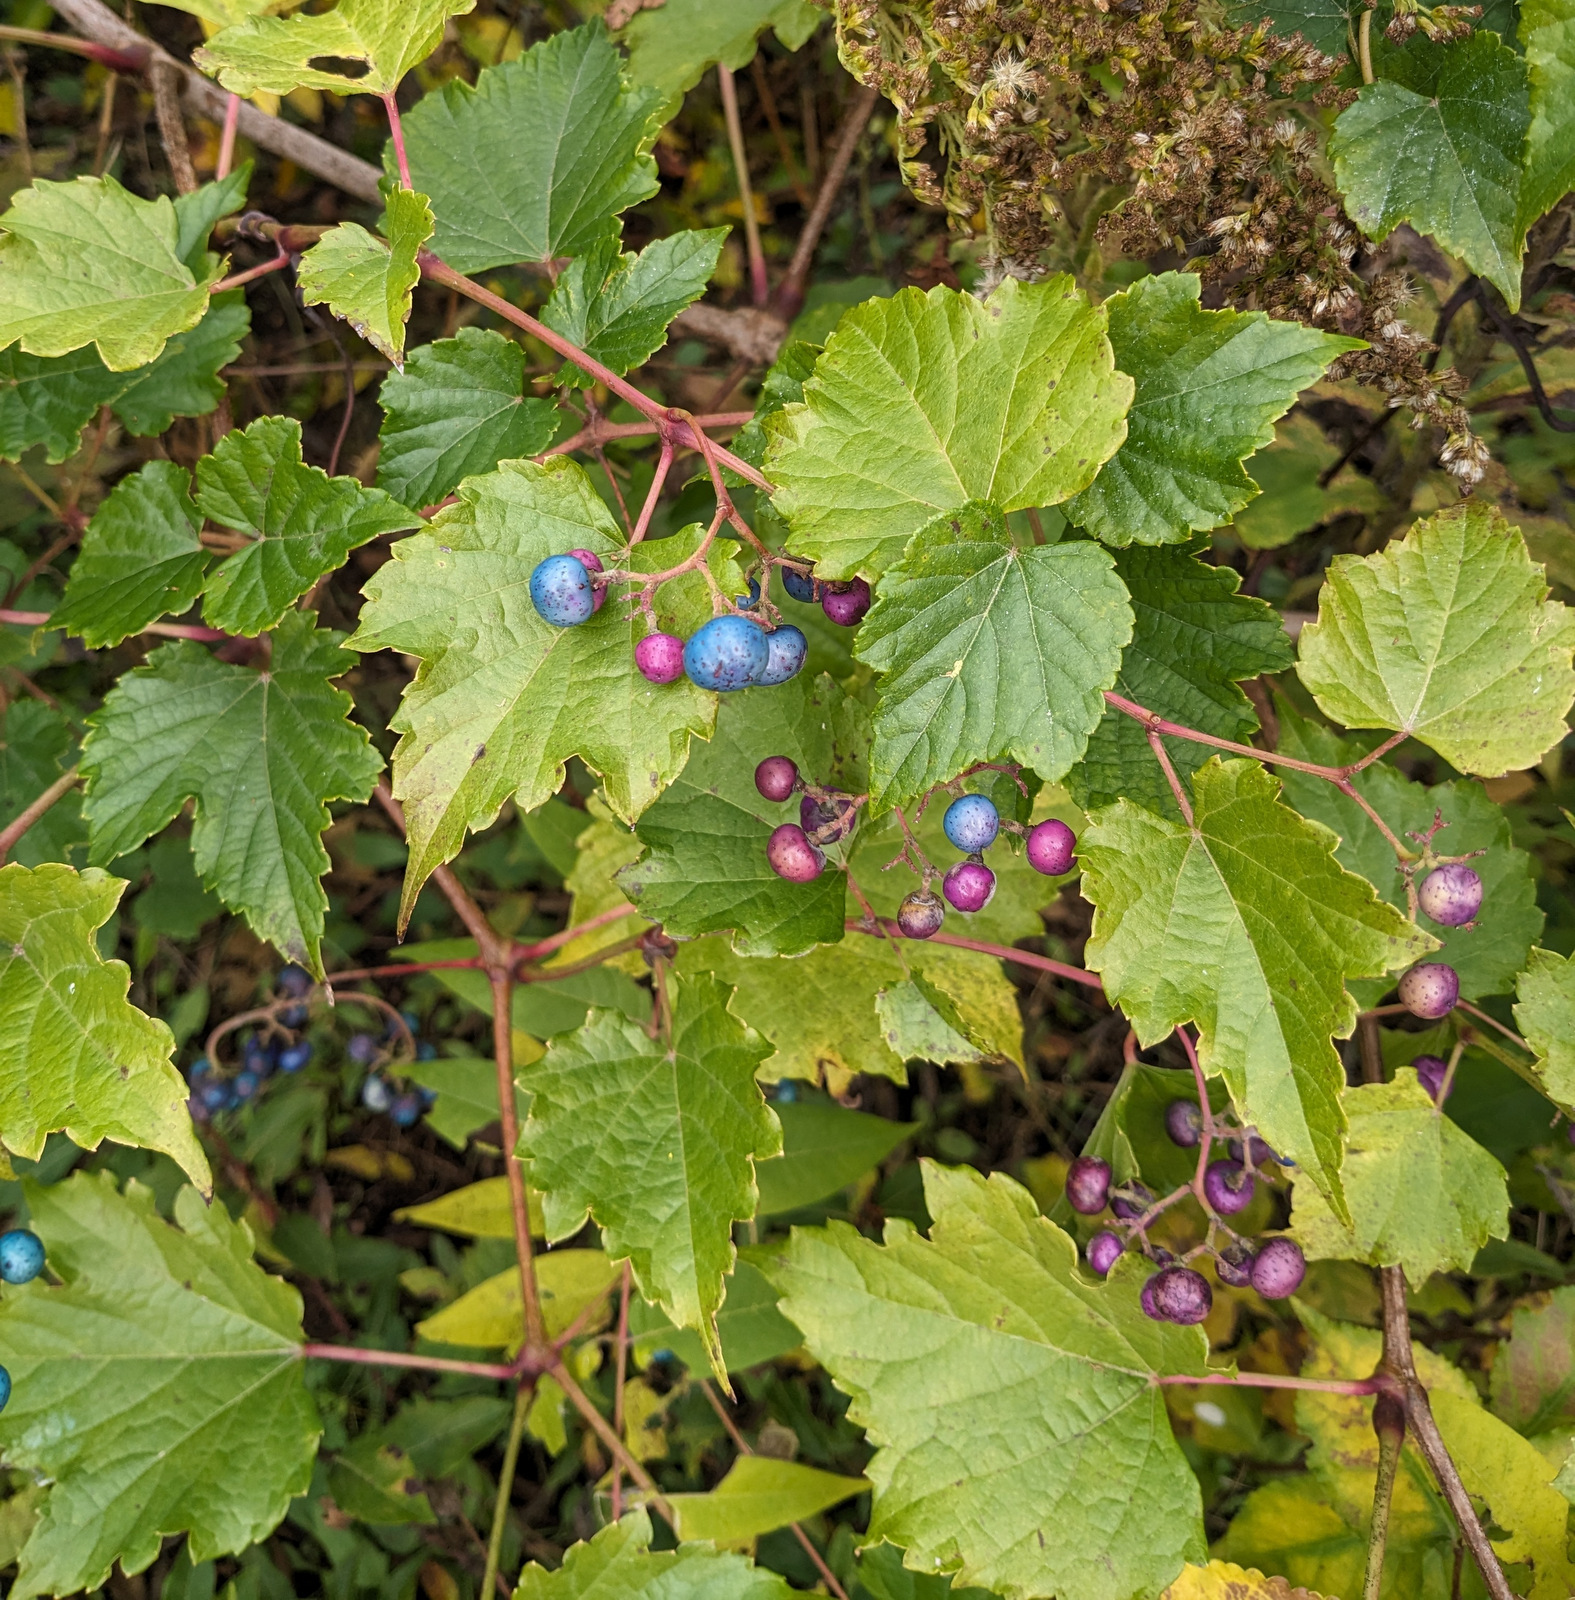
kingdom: Plantae
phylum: Tracheophyta
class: Magnoliopsida
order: Vitales
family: Vitaceae
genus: Ampelopsis
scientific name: Ampelopsis glandulosa
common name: Amur peppervine
